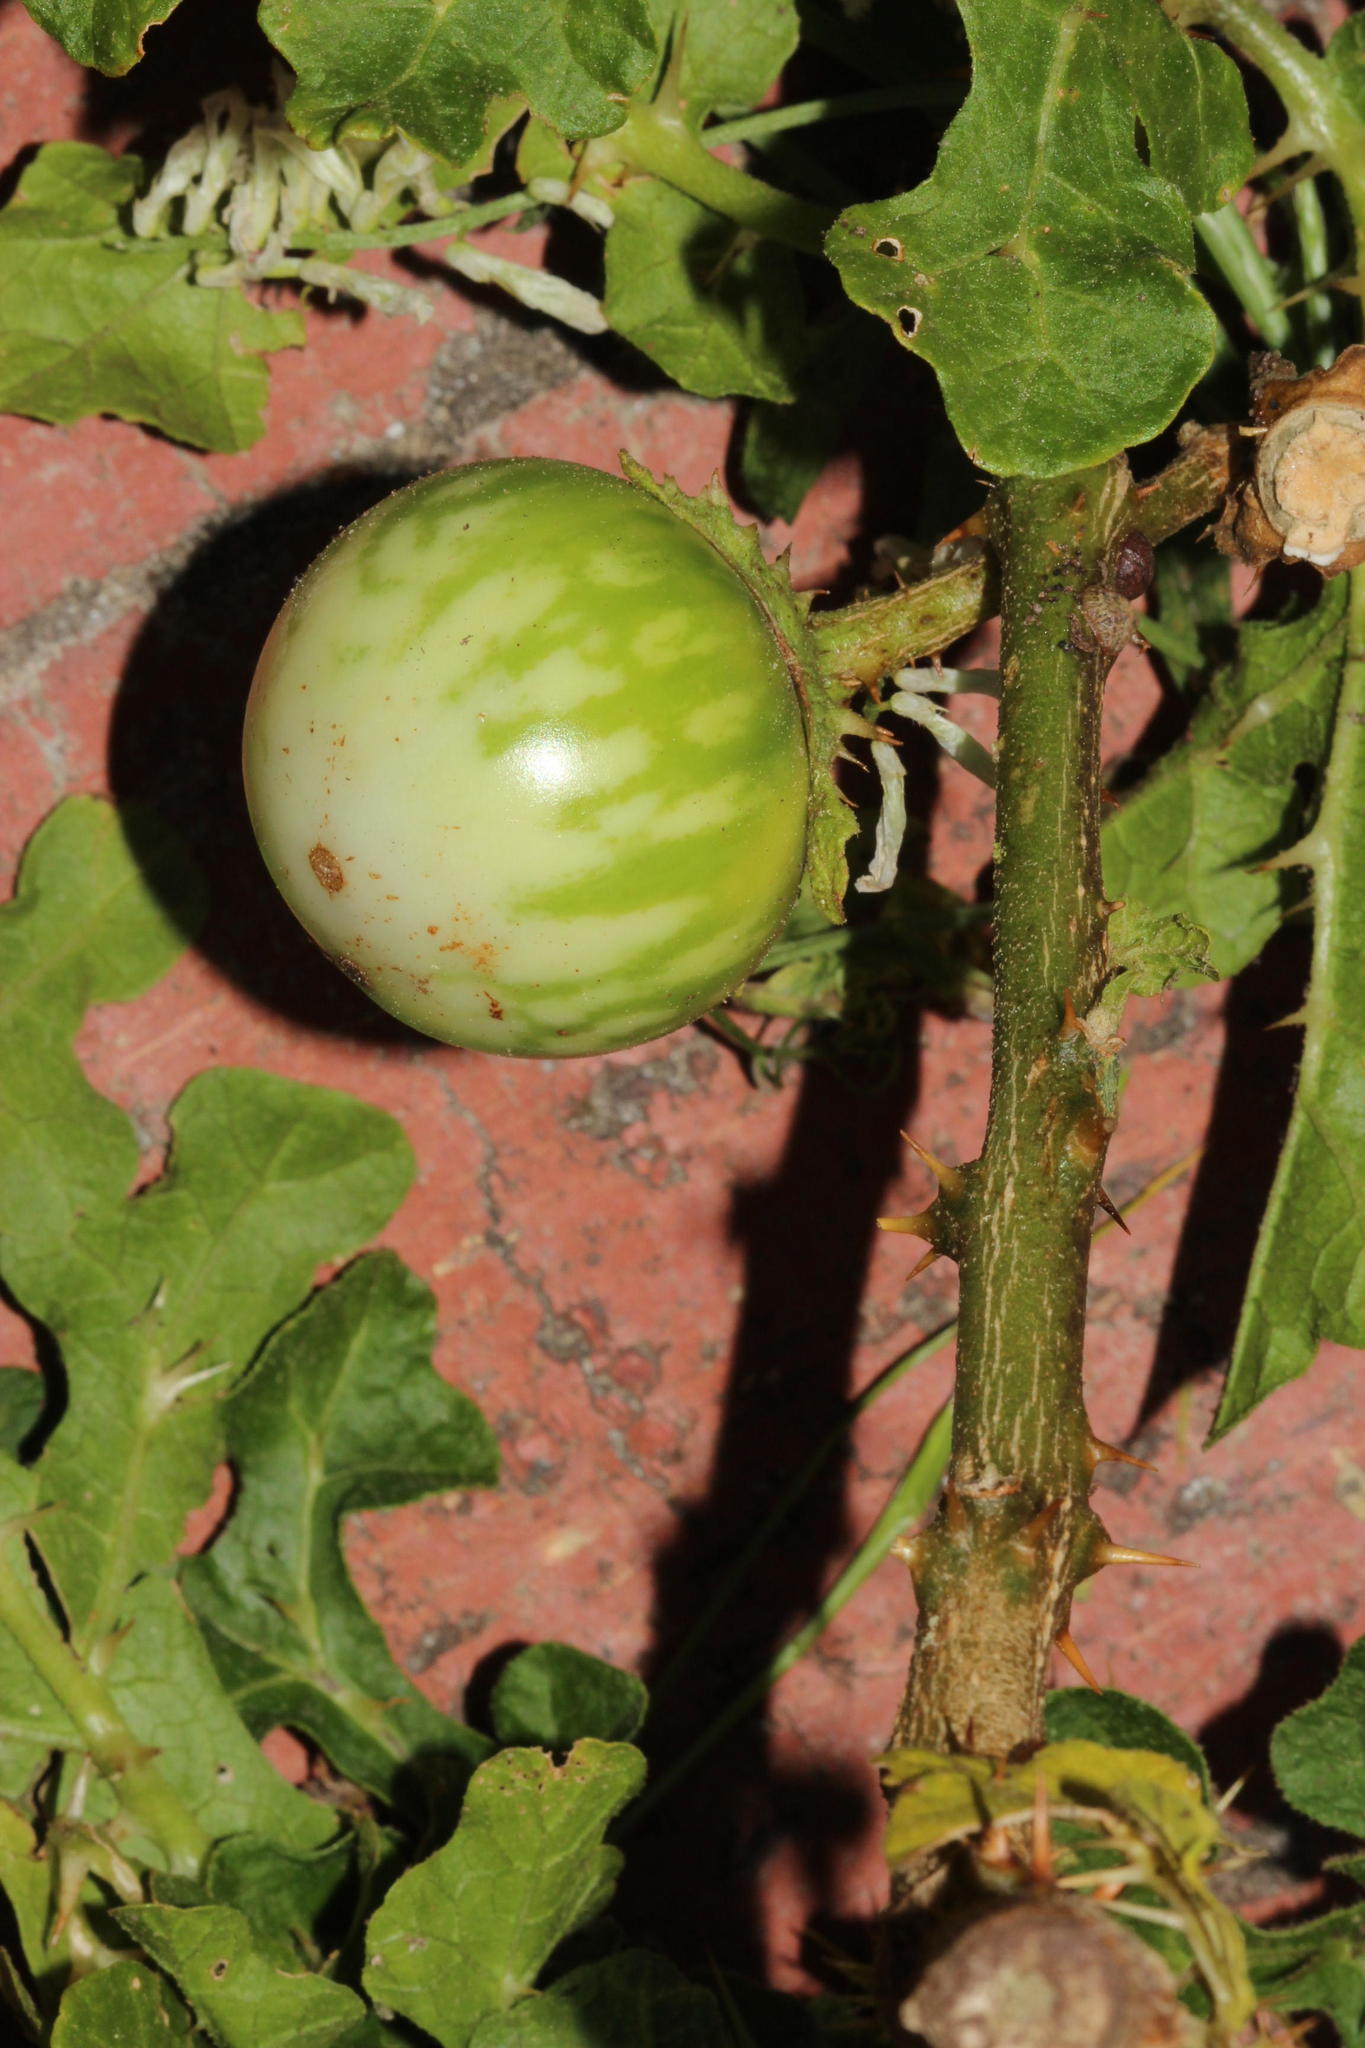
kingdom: Plantae
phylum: Tracheophyta
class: Magnoliopsida
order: Solanales
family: Solanaceae
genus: Solanum
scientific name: Solanum linnaeanum
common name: Nightshade
